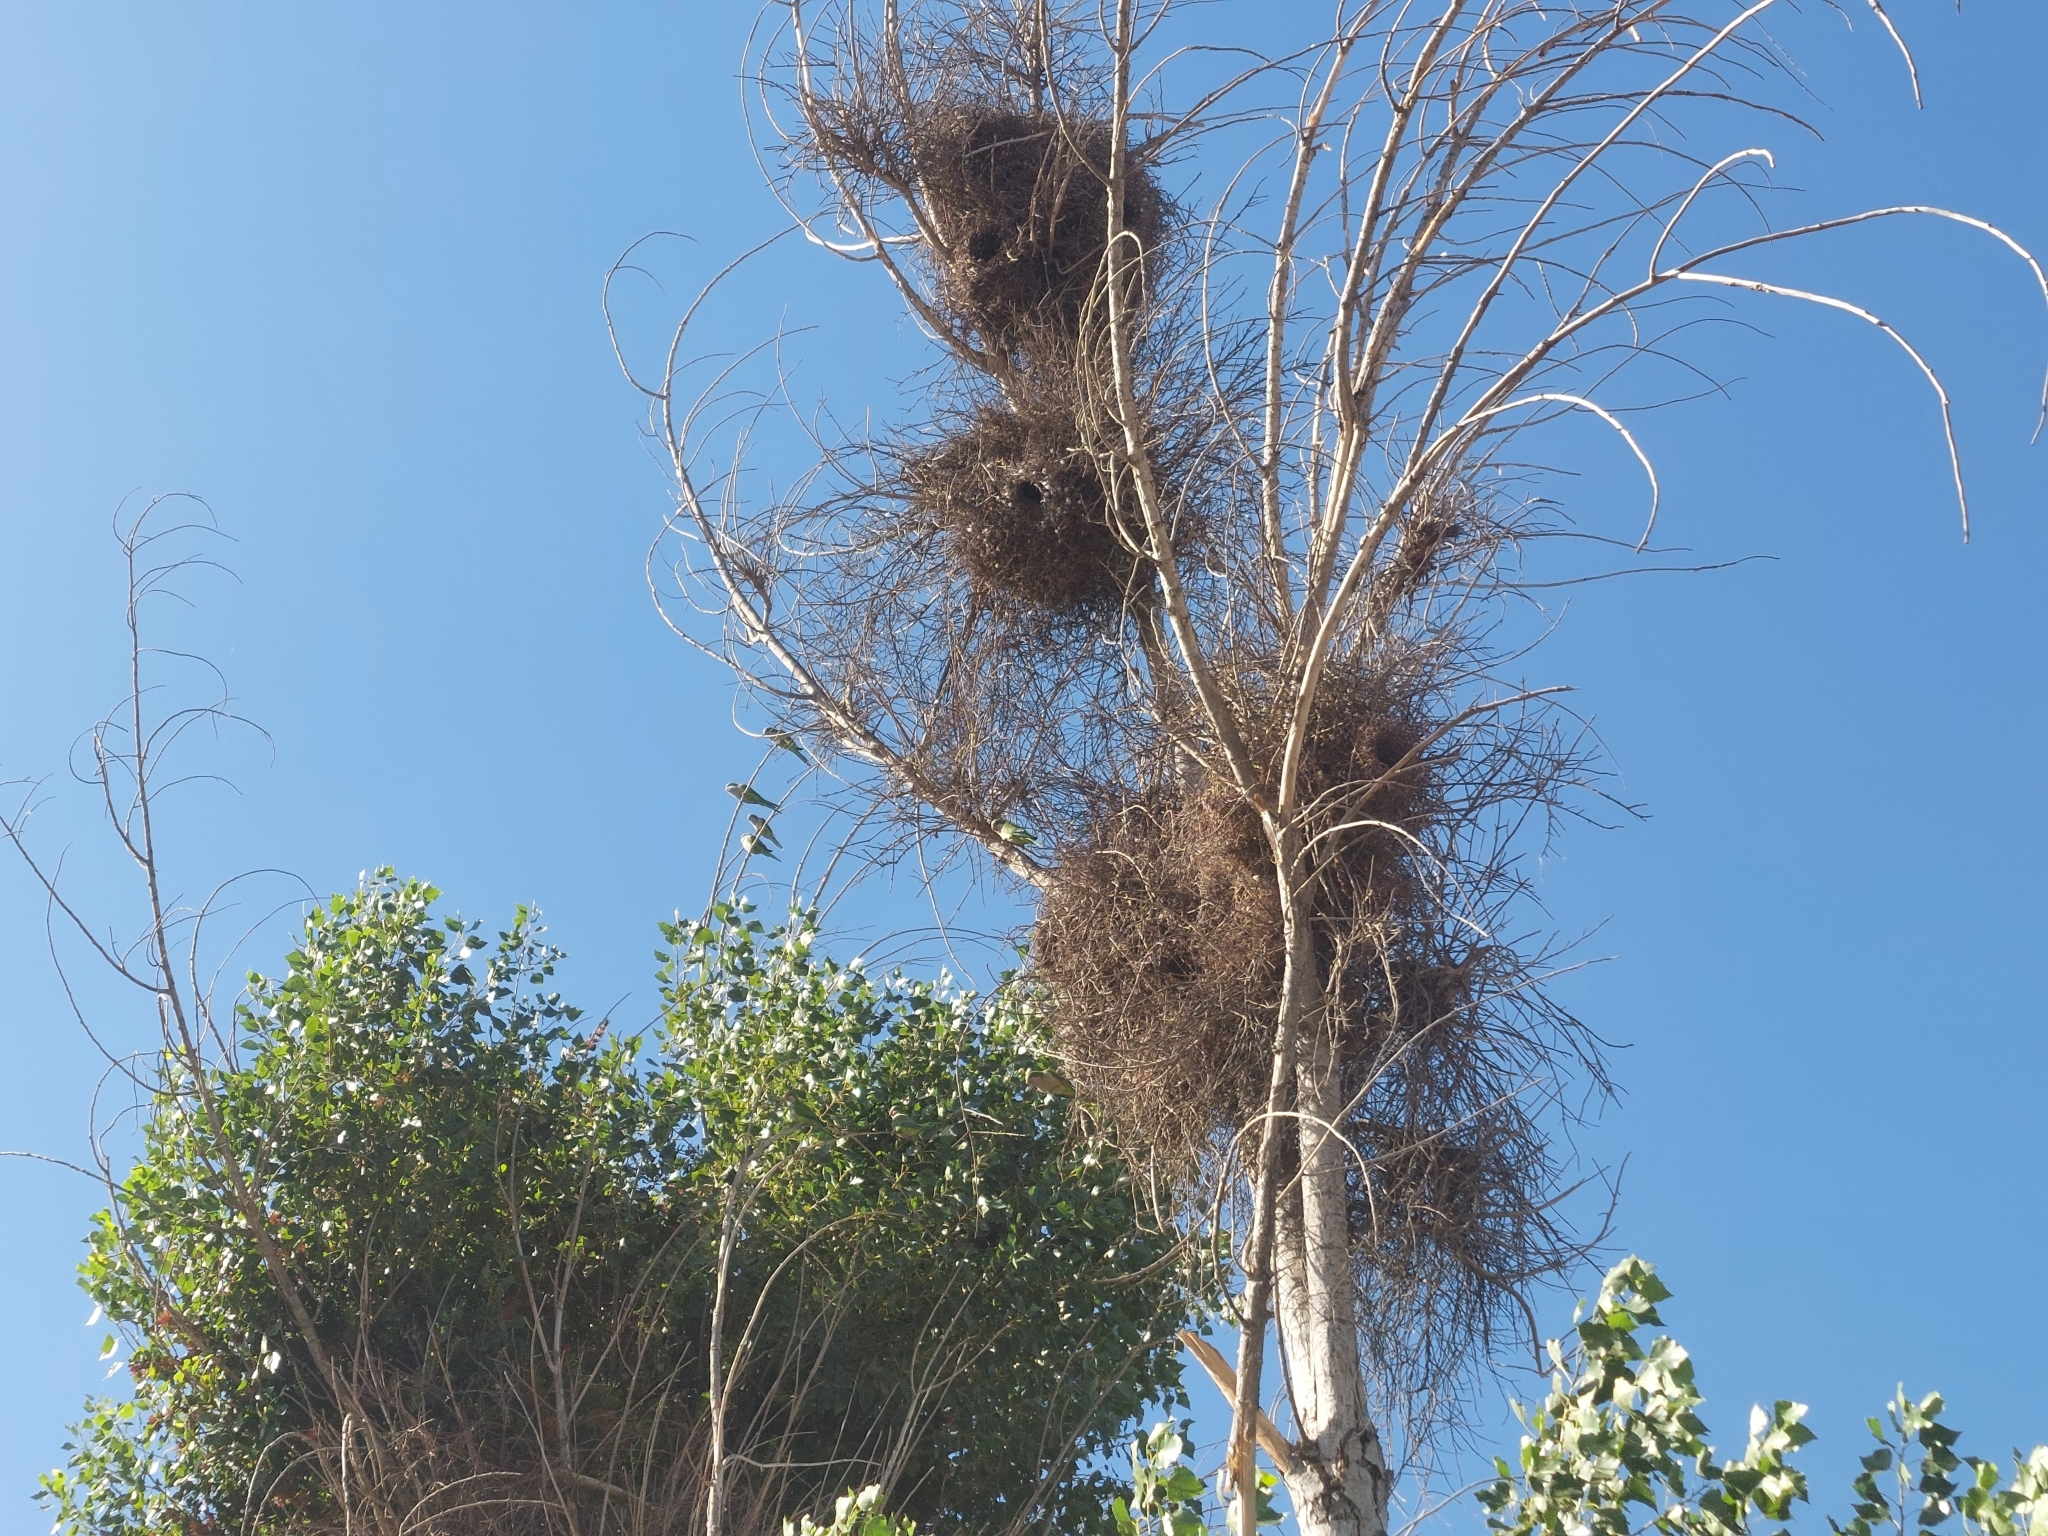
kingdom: Animalia
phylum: Chordata
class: Aves
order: Psittaciformes
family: Psittacidae
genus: Myiopsitta
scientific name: Myiopsitta monachus
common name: Monk parakeet
